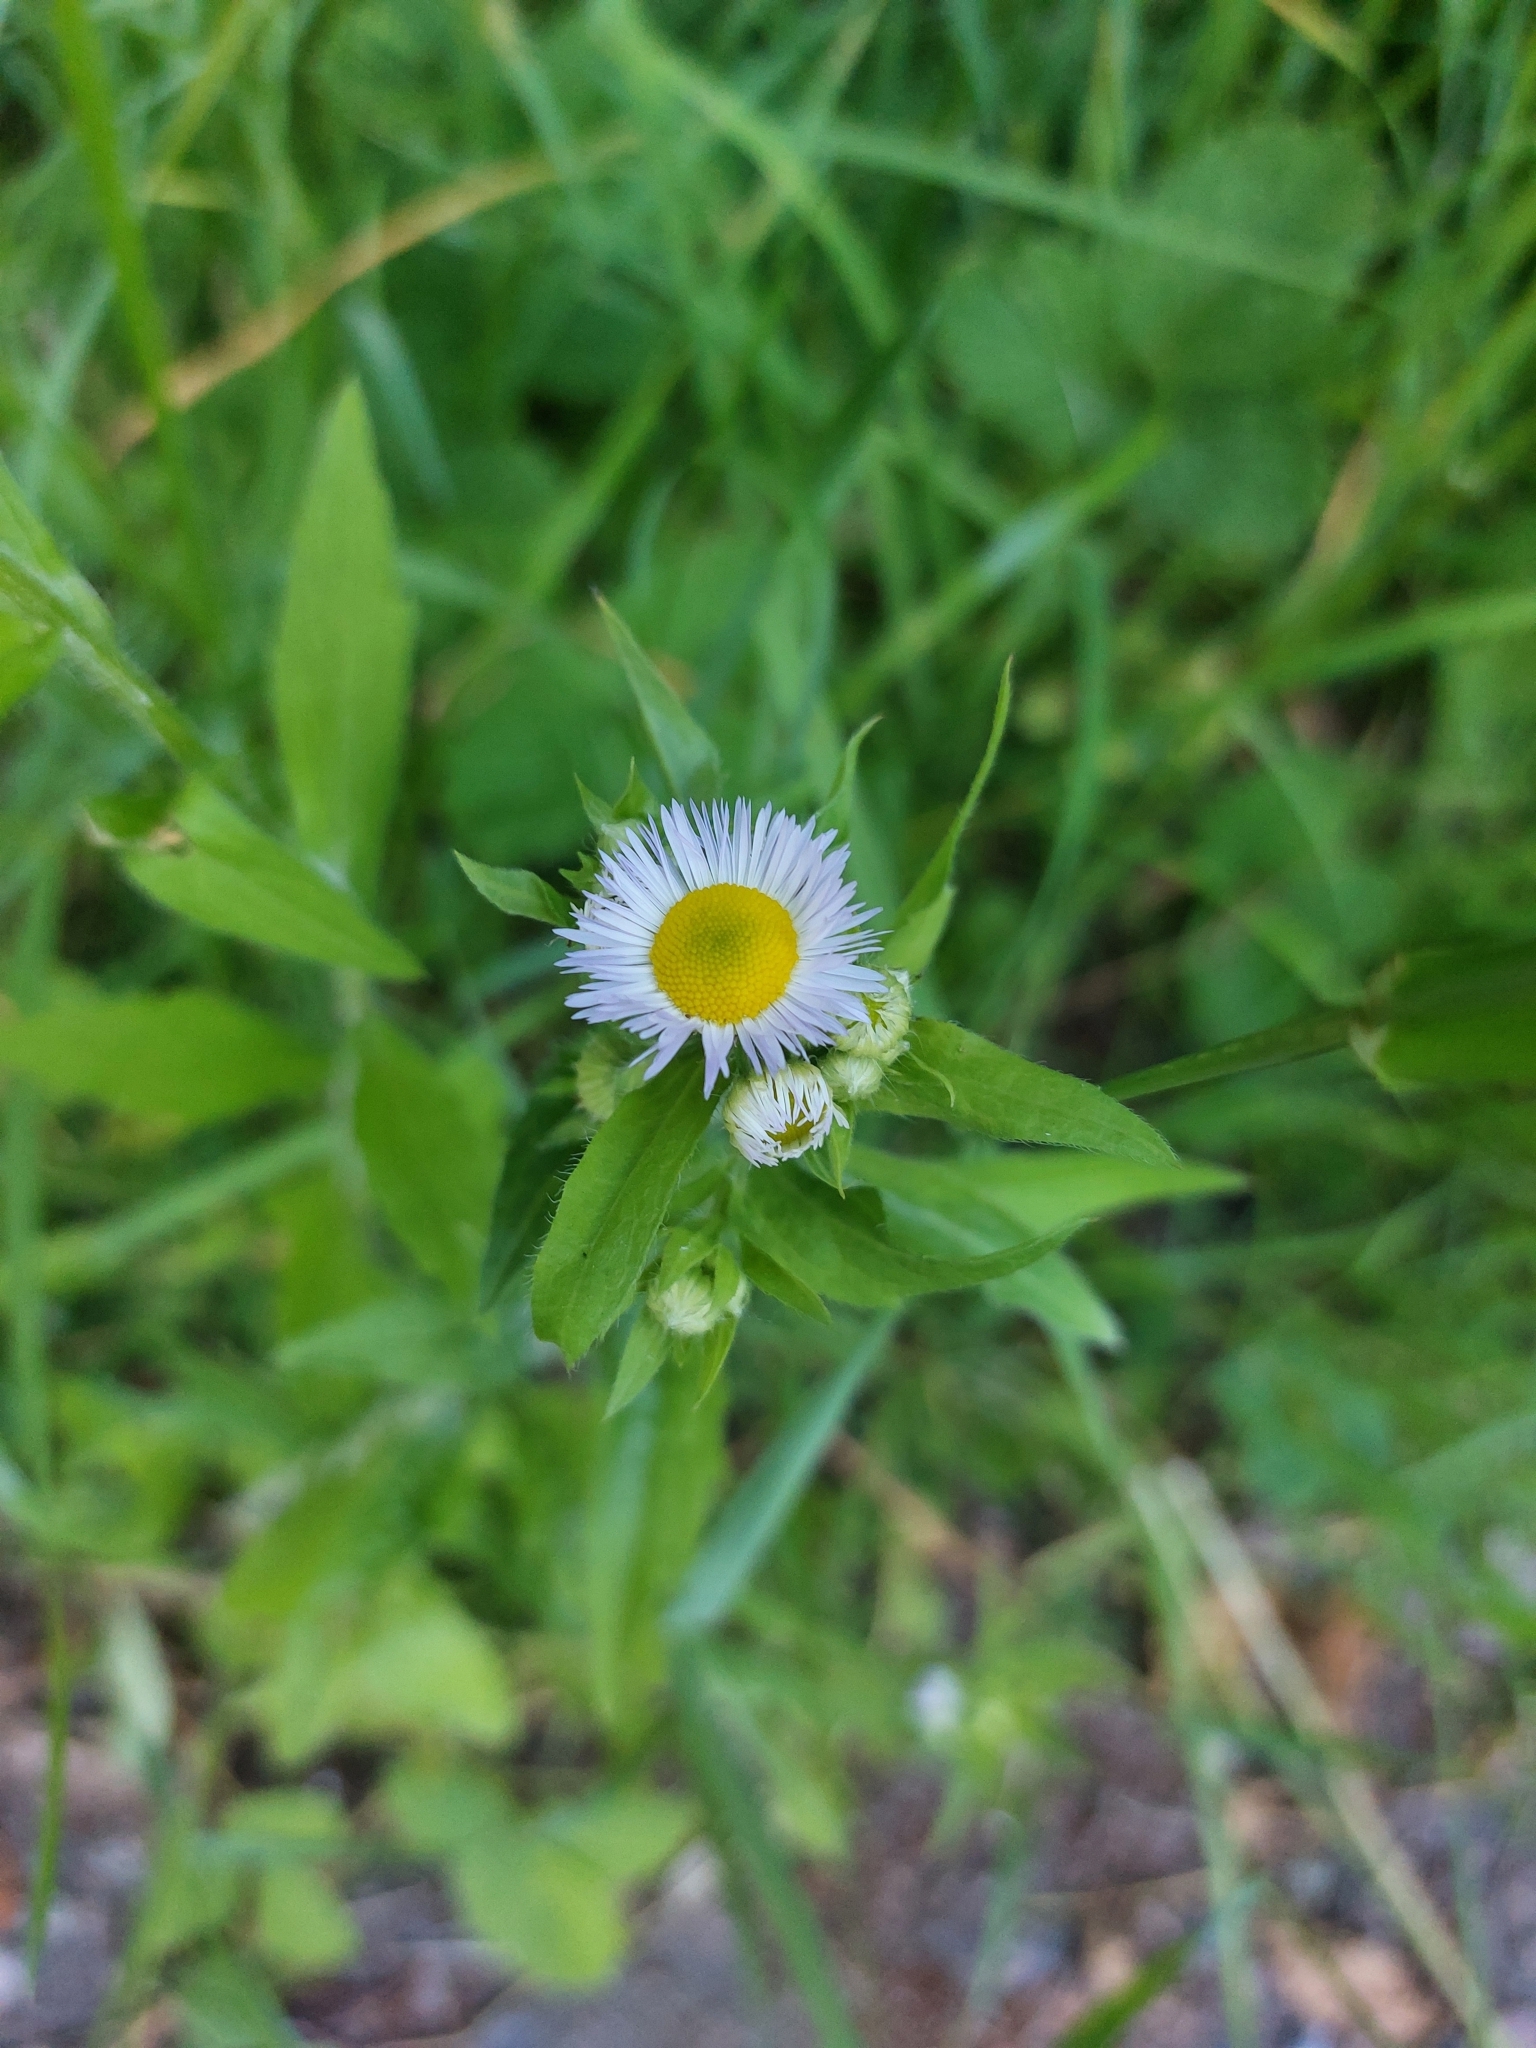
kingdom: Plantae
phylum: Tracheophyta
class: Magnoliopsida
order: Asterales
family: Asteraceae
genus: Erigeron
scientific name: Erigeron annuus
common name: Tall fleabane
